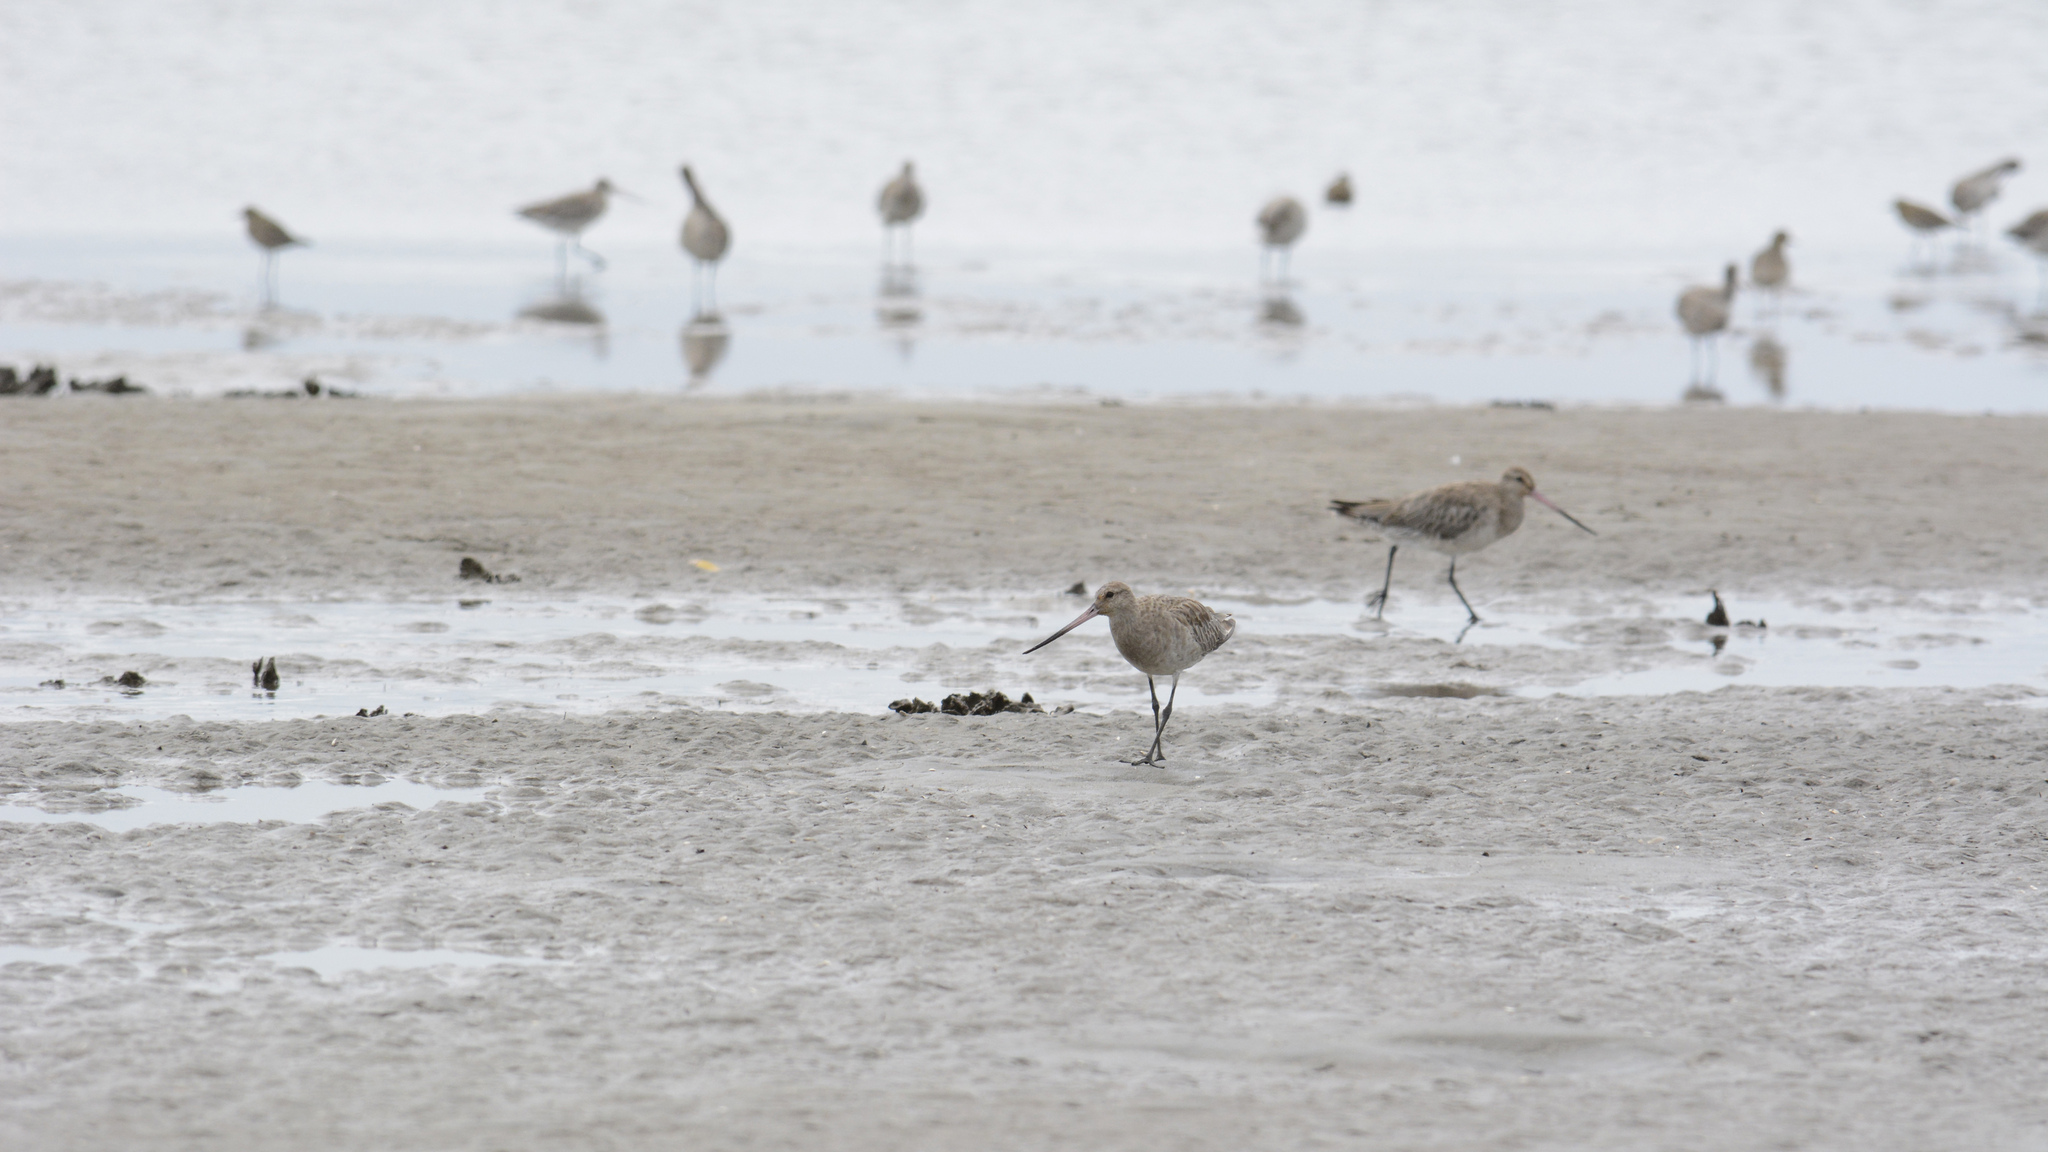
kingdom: Animalia
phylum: Chordata
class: Aves
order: Charadriiformes
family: Scolopacidae
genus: Limosa
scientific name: Limosa lapponica
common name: Bar-tailed godwit
